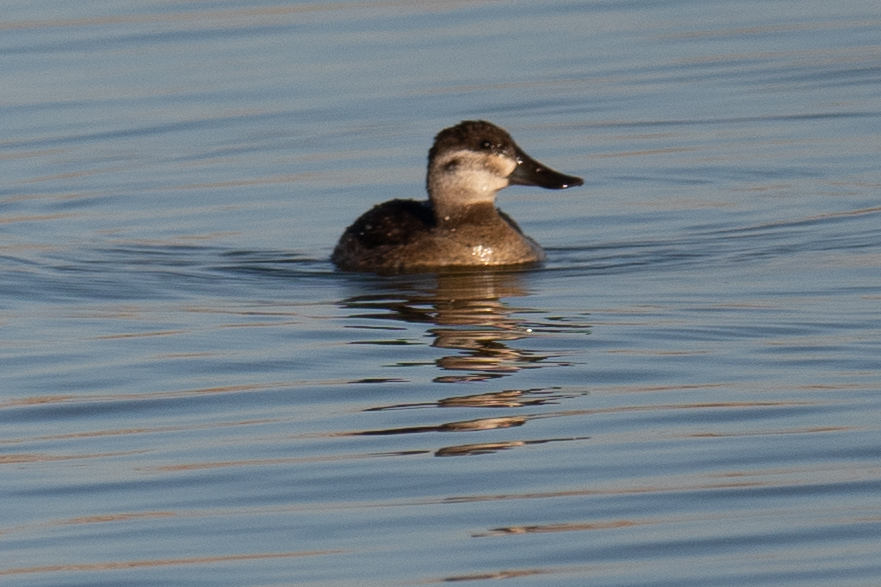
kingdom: Animalia
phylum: Chordata
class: Aves
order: Anseriformes
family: Anatidae
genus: Oxyura
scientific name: Oxyura jamaicensis
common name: Ruddy duck
